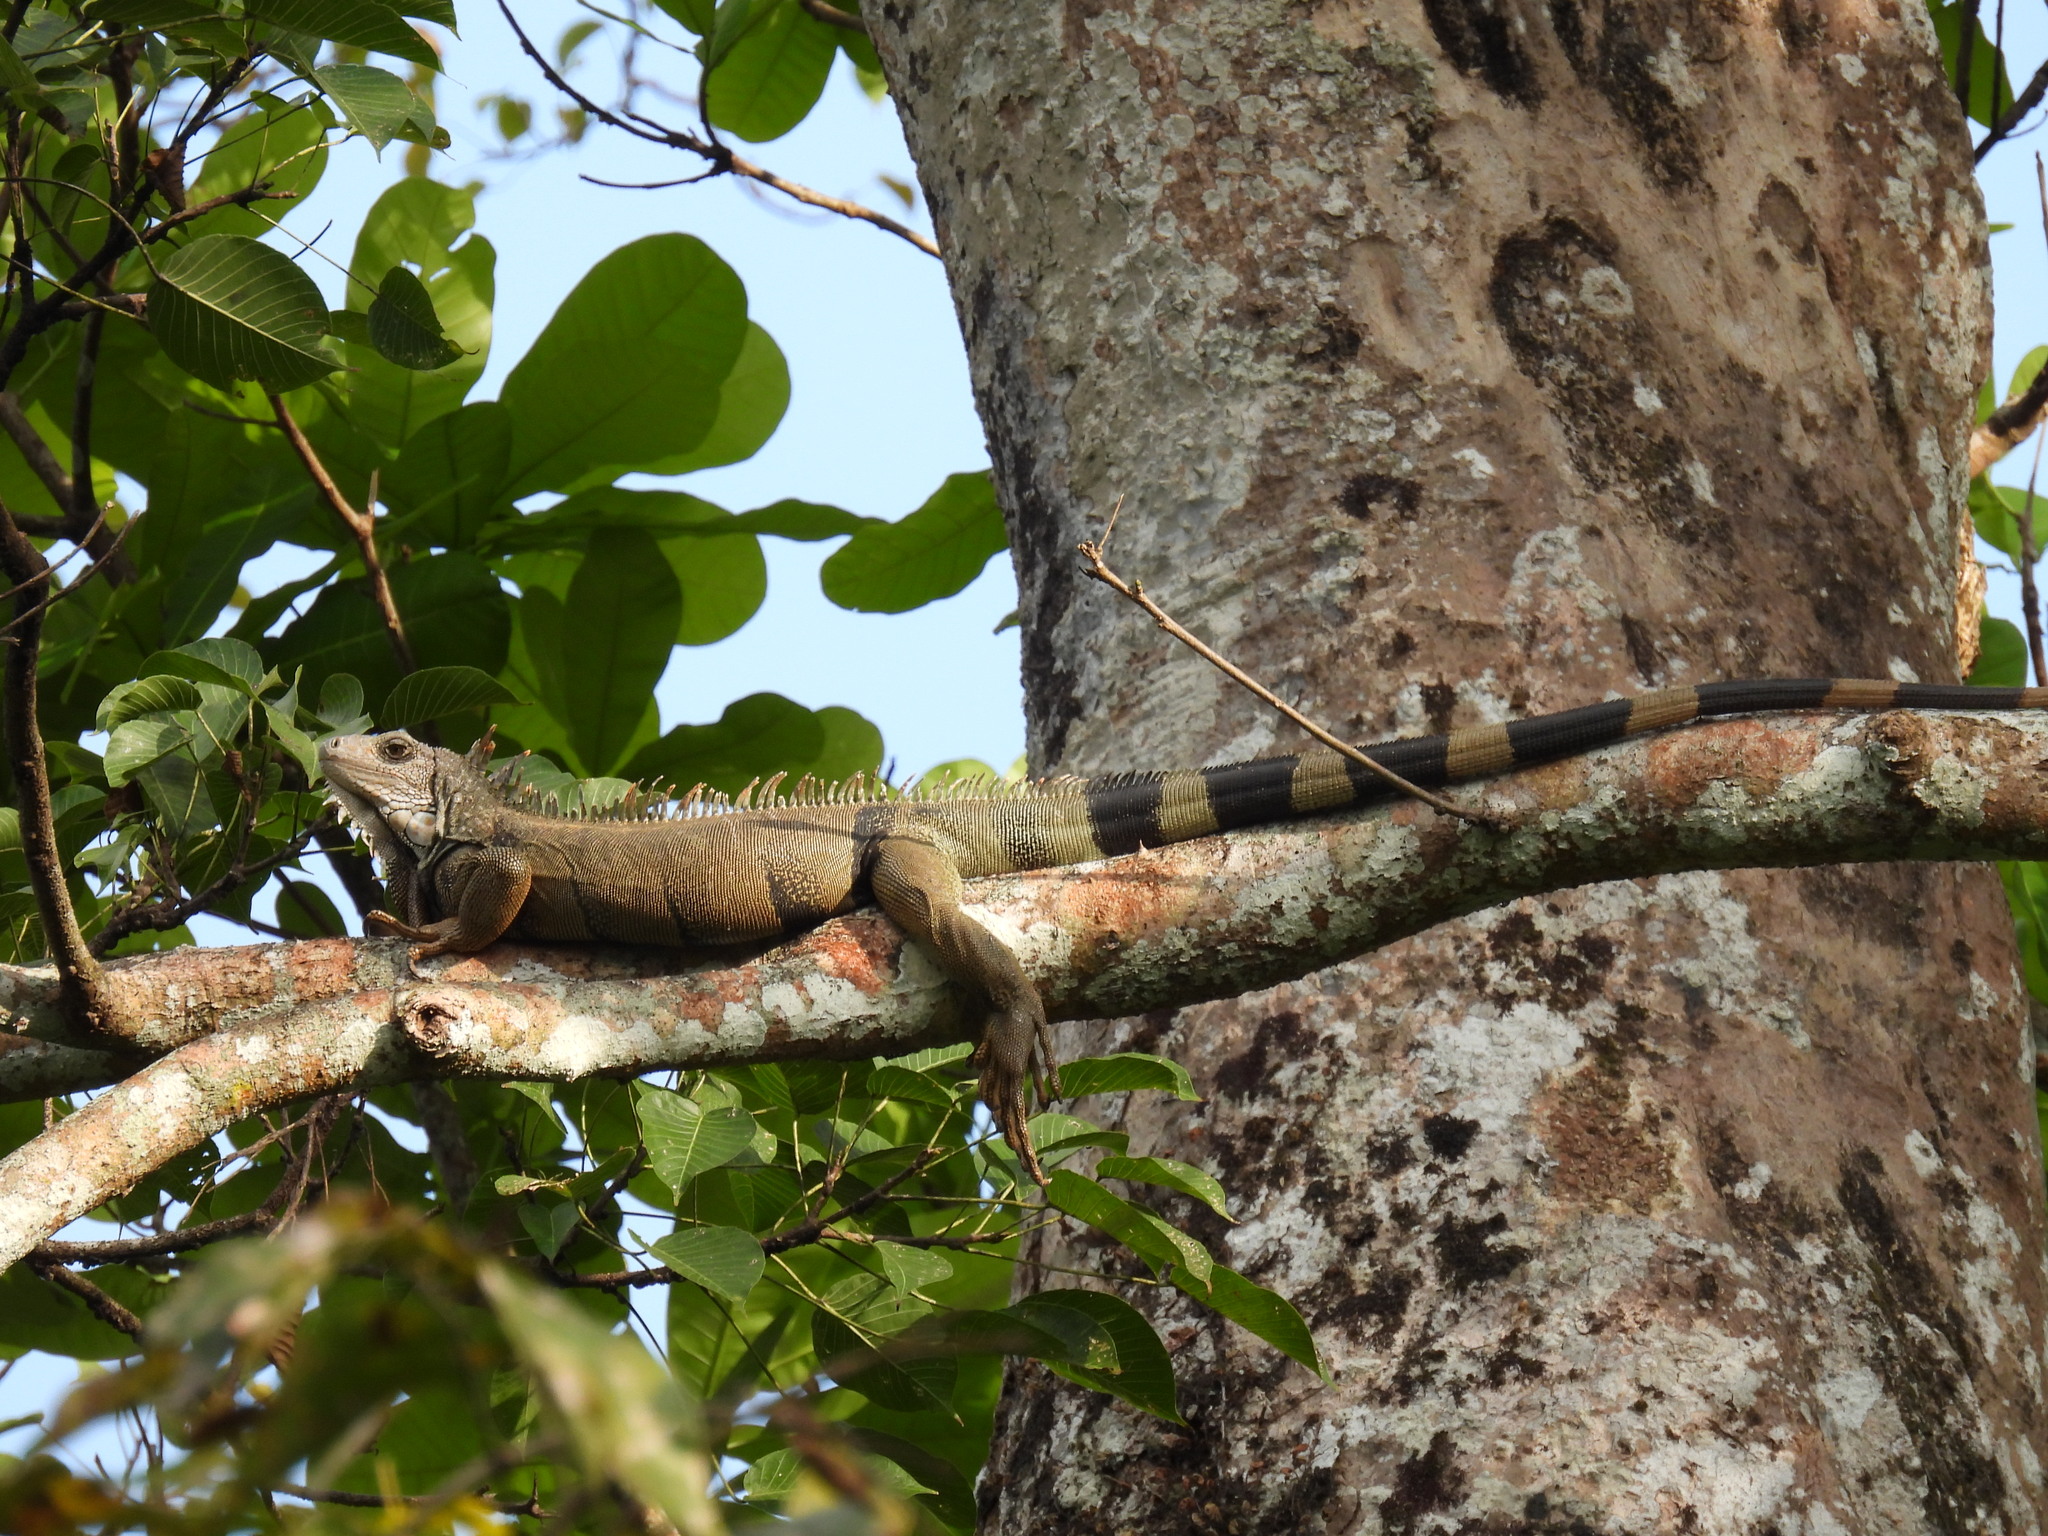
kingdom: Animalia
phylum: Chordata
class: Squamata
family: Iguanidae
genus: Iguana
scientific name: Iguana iguana
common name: Green iguana
